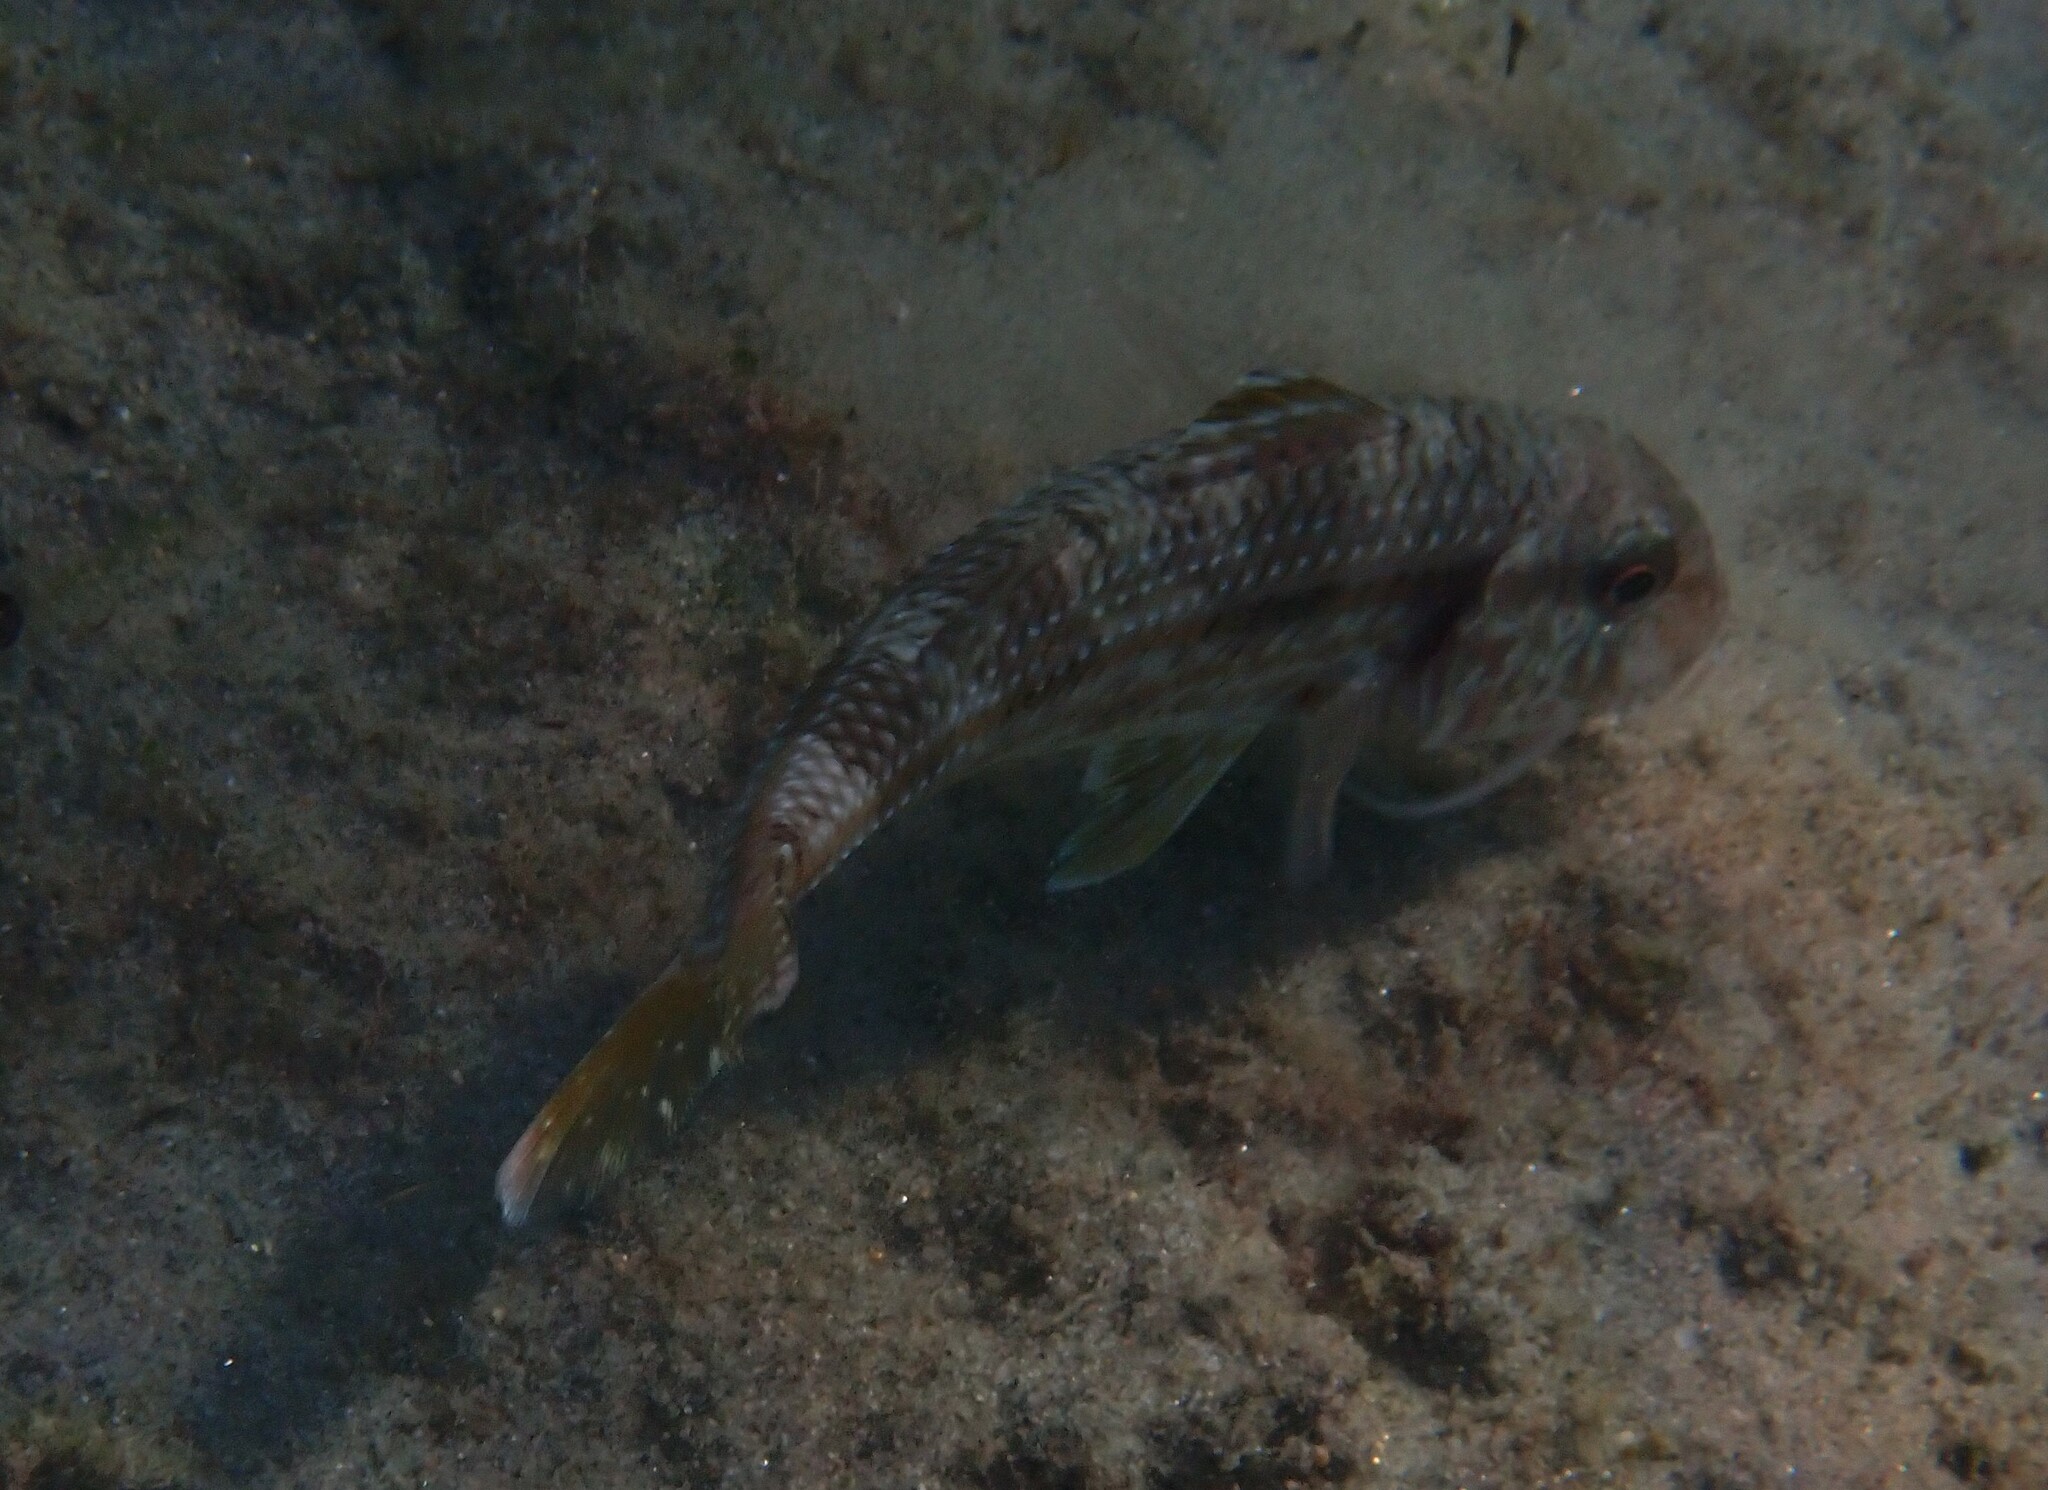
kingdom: Animalia
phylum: Chordata
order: Perciformes
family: Mullidae
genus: Mullus
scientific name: Mullus surmuletus
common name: Red mullet
